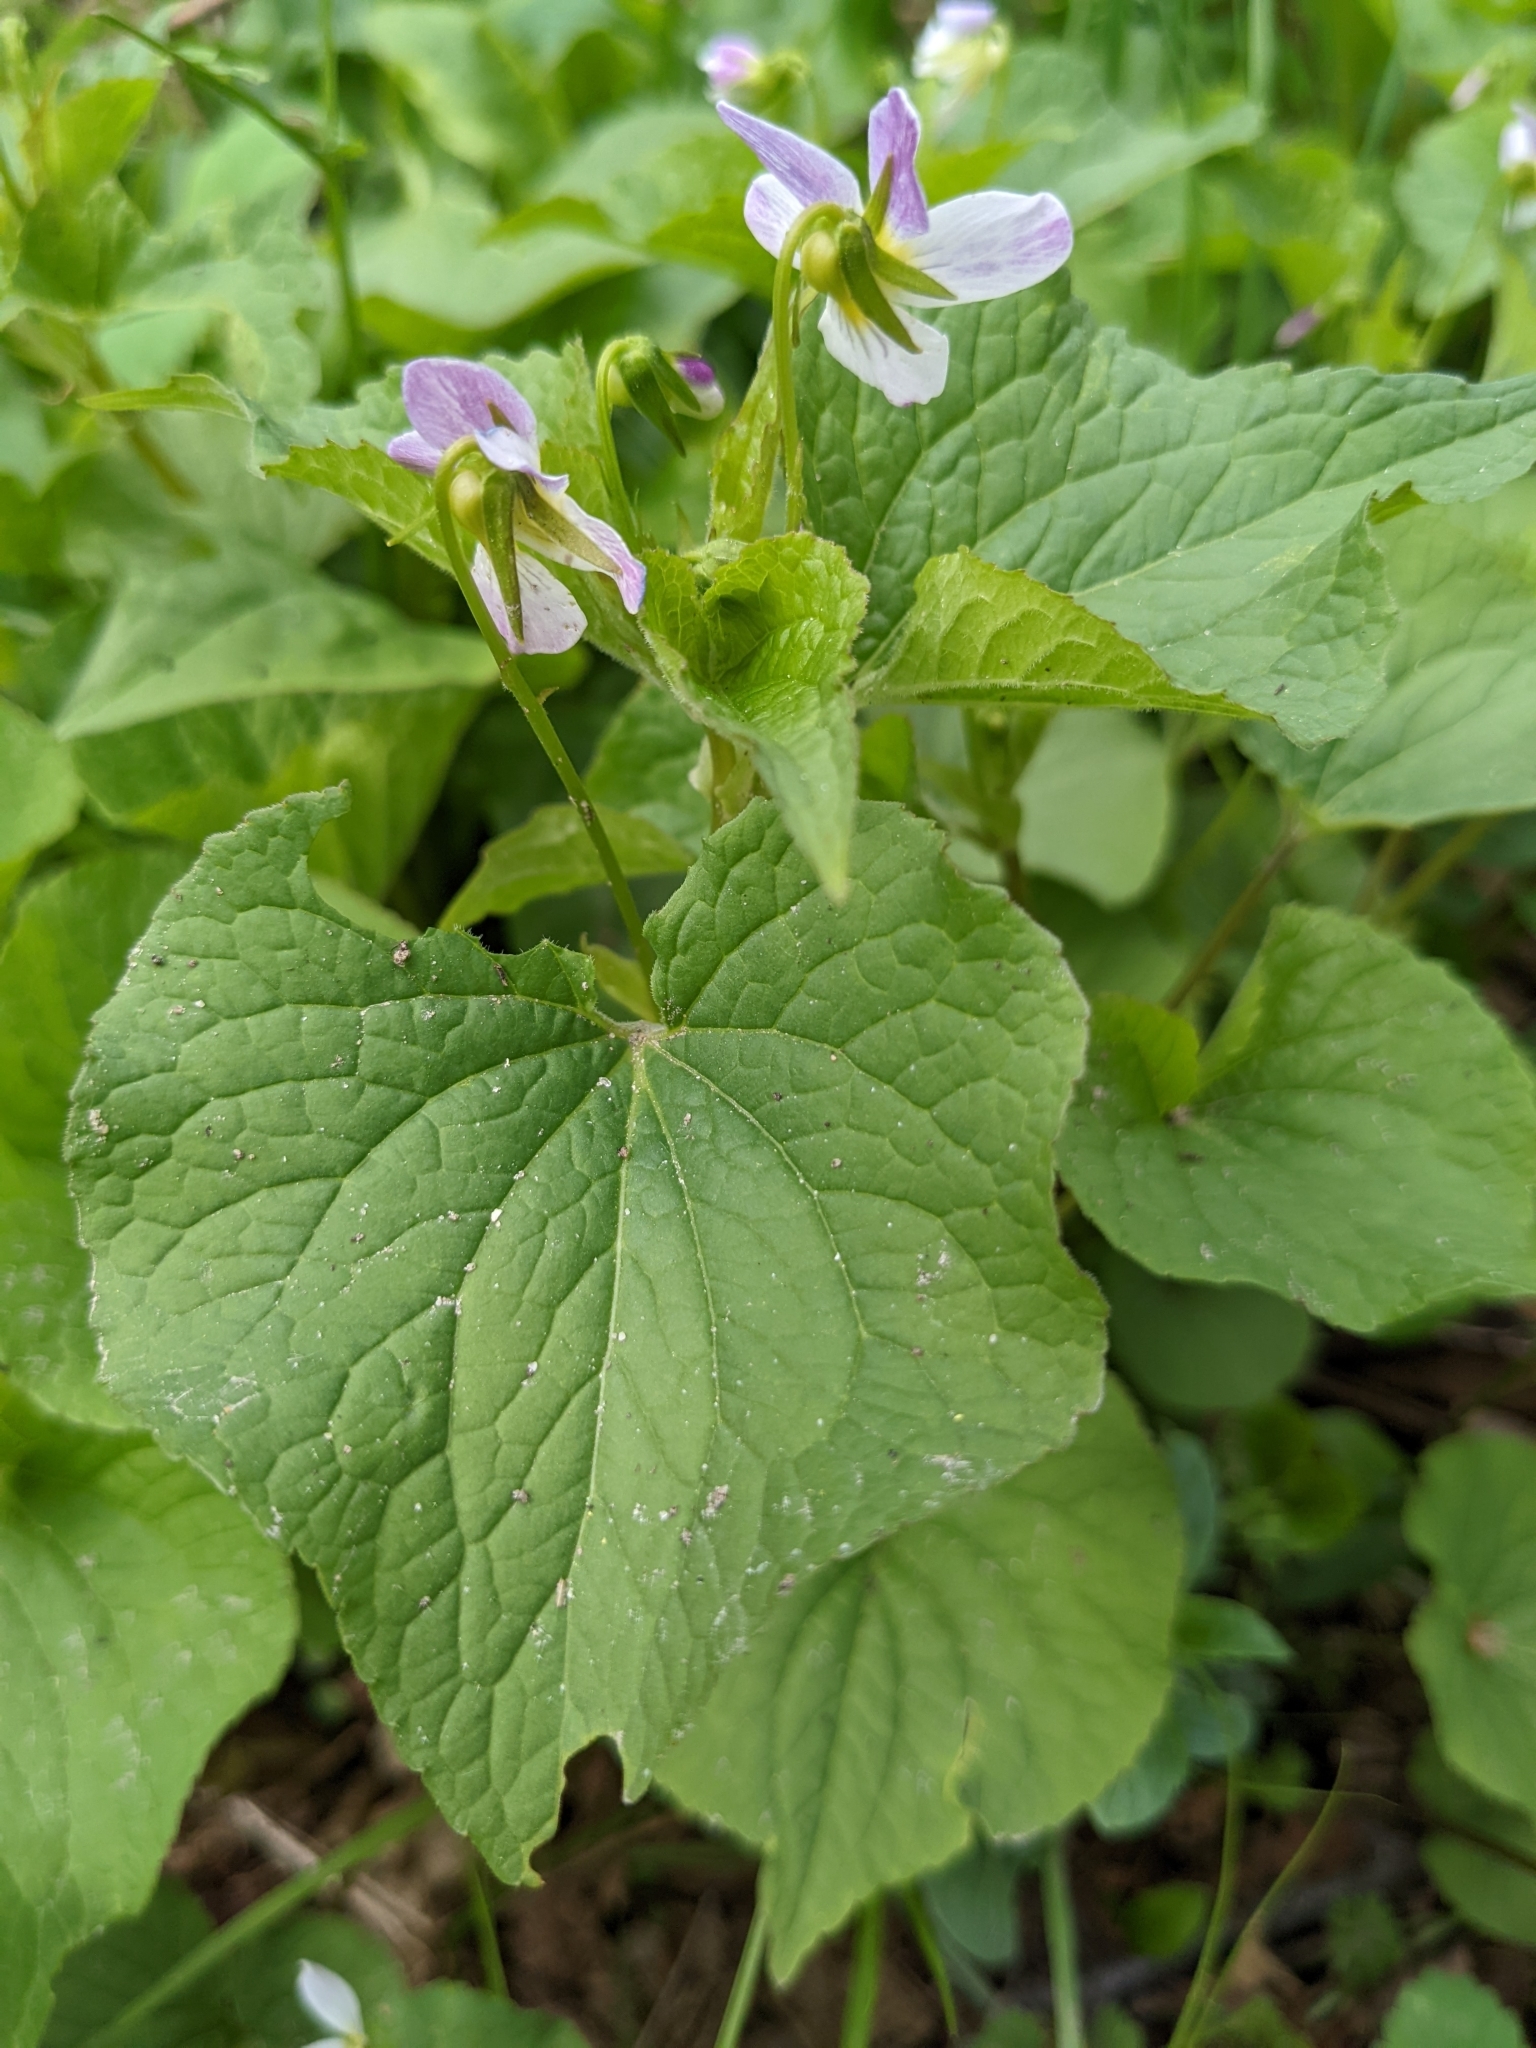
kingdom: Plantae
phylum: Tracheophyta
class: Magnoliopsida
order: Malpighiales
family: Violaceae
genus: Viola
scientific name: Viola canadensis
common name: Canada violet
